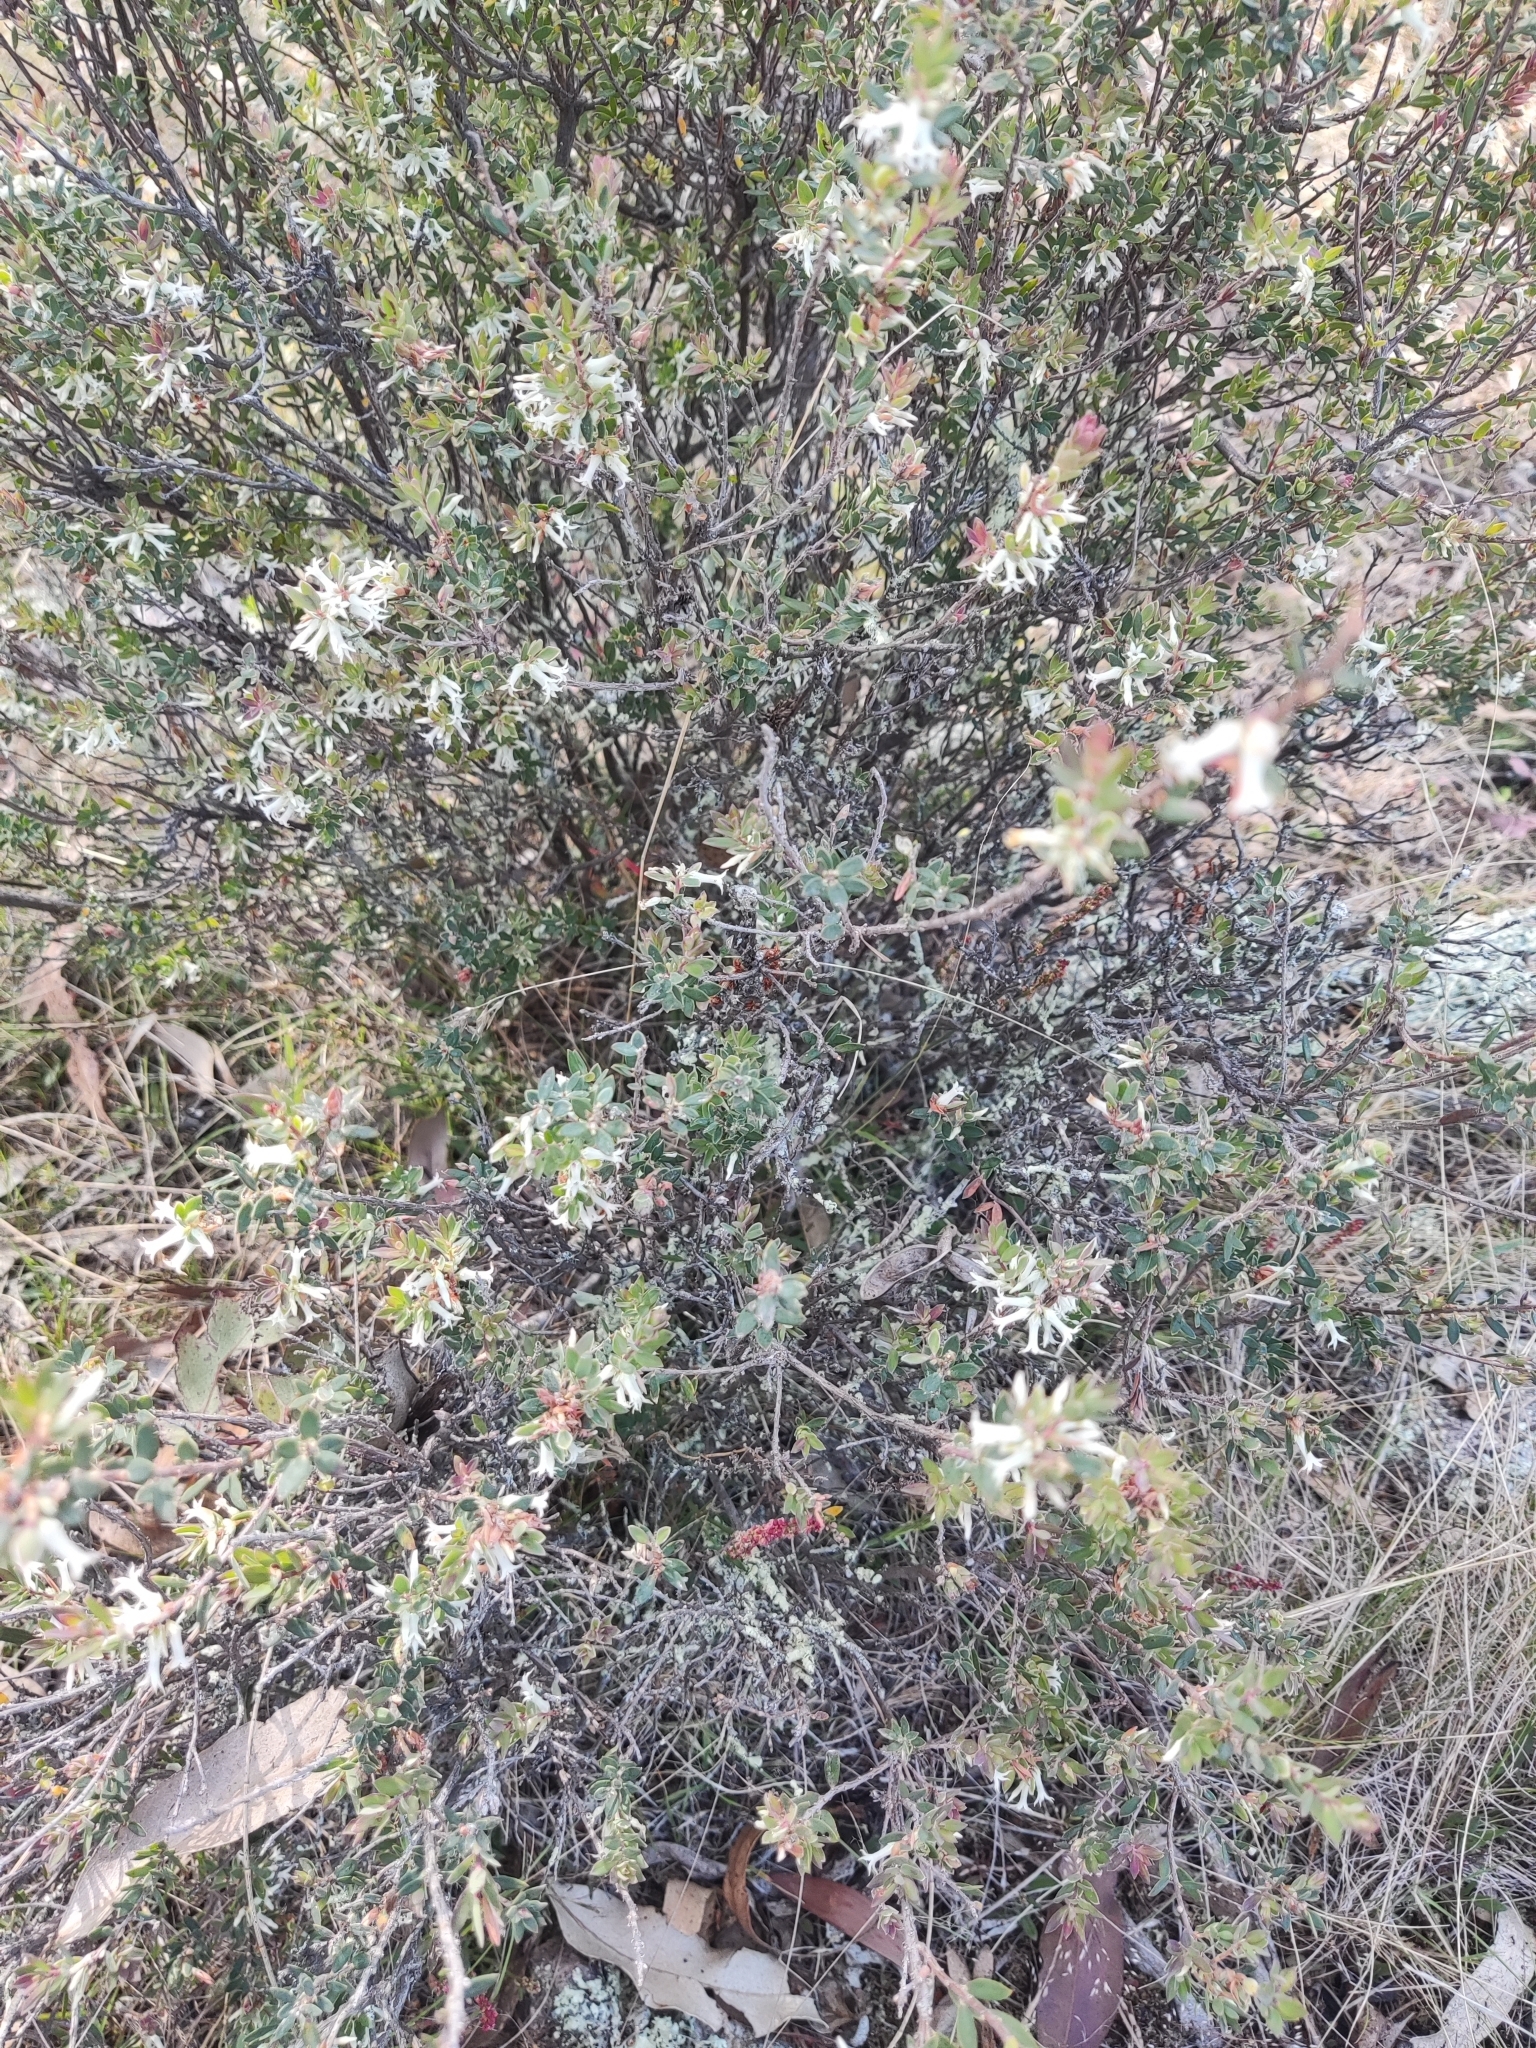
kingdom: Plantae
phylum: Tracheophyta
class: Magnoliopsida
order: Ericales
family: Ericaceae
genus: Brachyloma
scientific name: Brachyloma daphnoides
